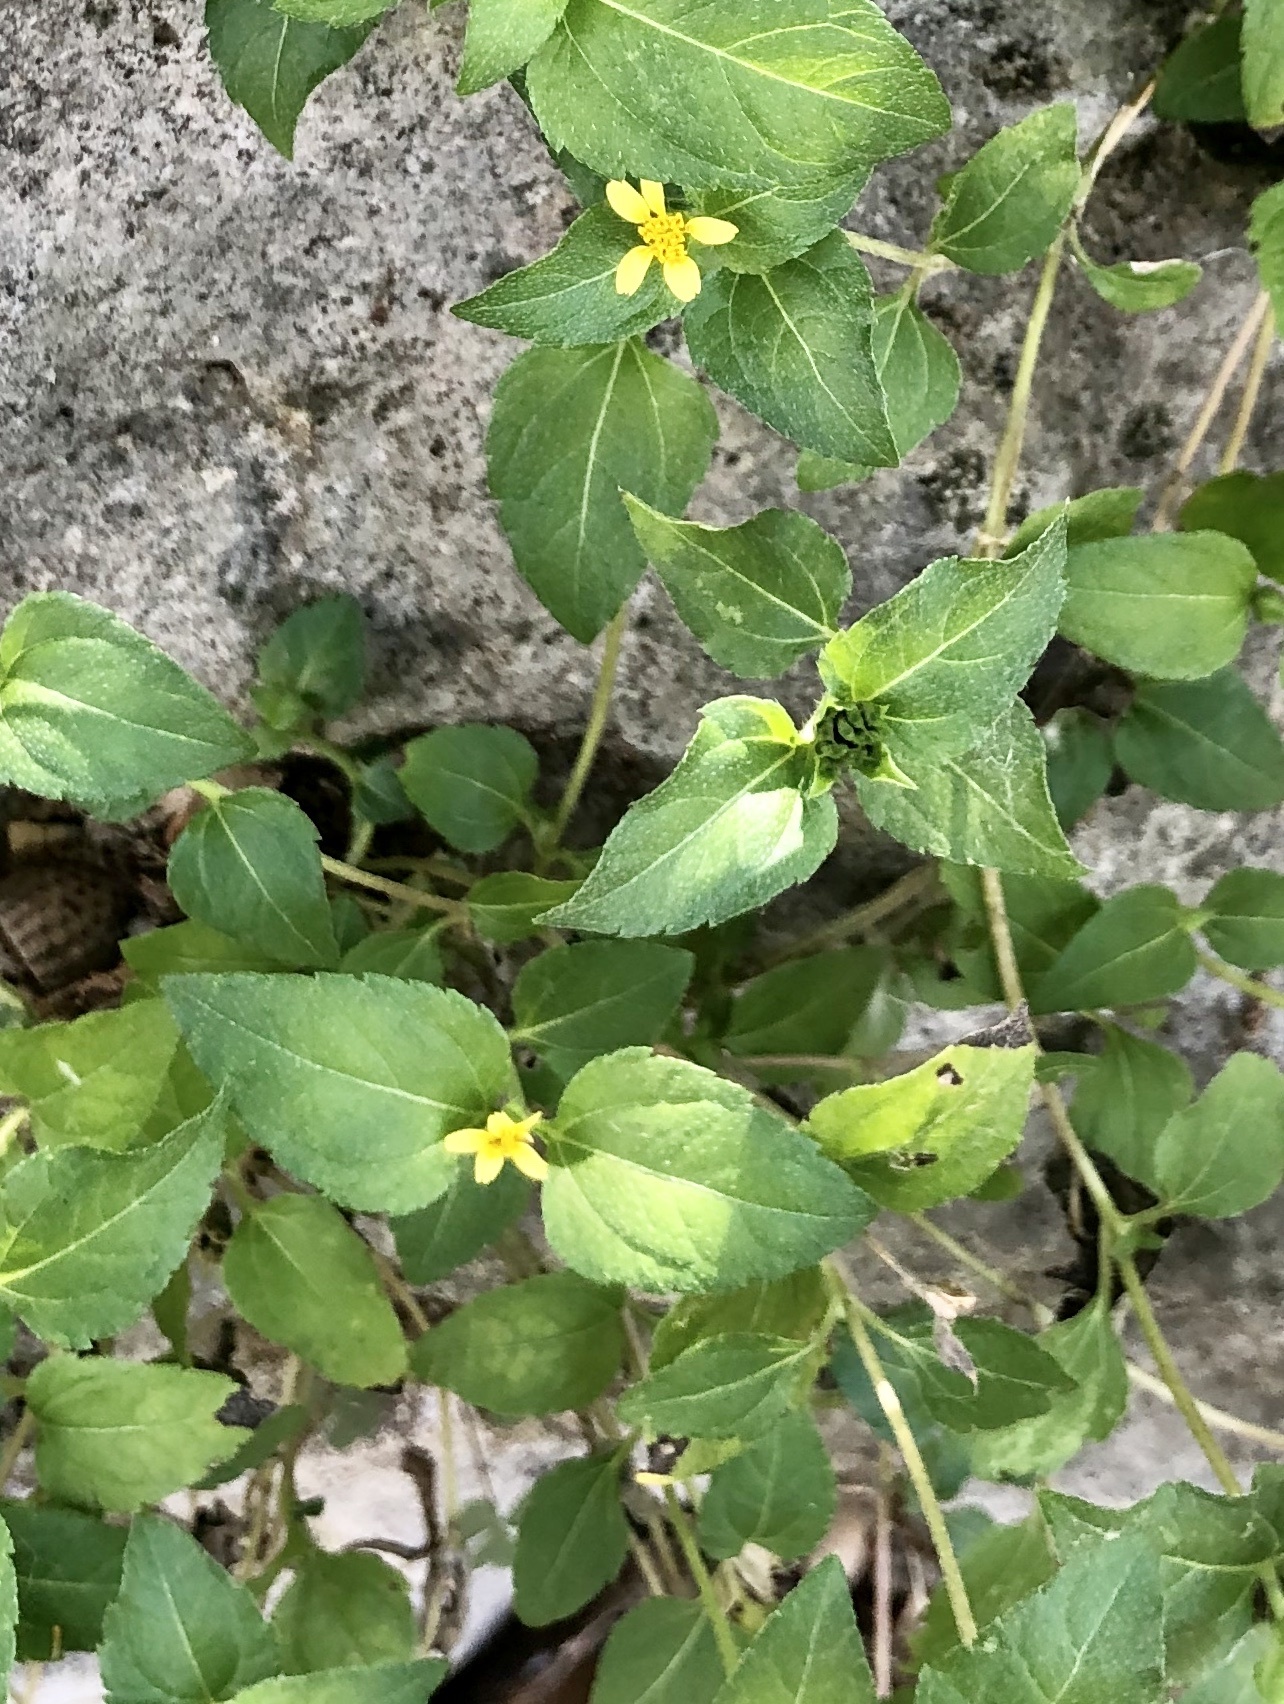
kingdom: Plantae
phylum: Tracheophyta
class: Magnoliopsida
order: Asterales
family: Asteraceae
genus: Calyptocarpus
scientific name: Calyptocarpus vialis
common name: Straggler daisy
